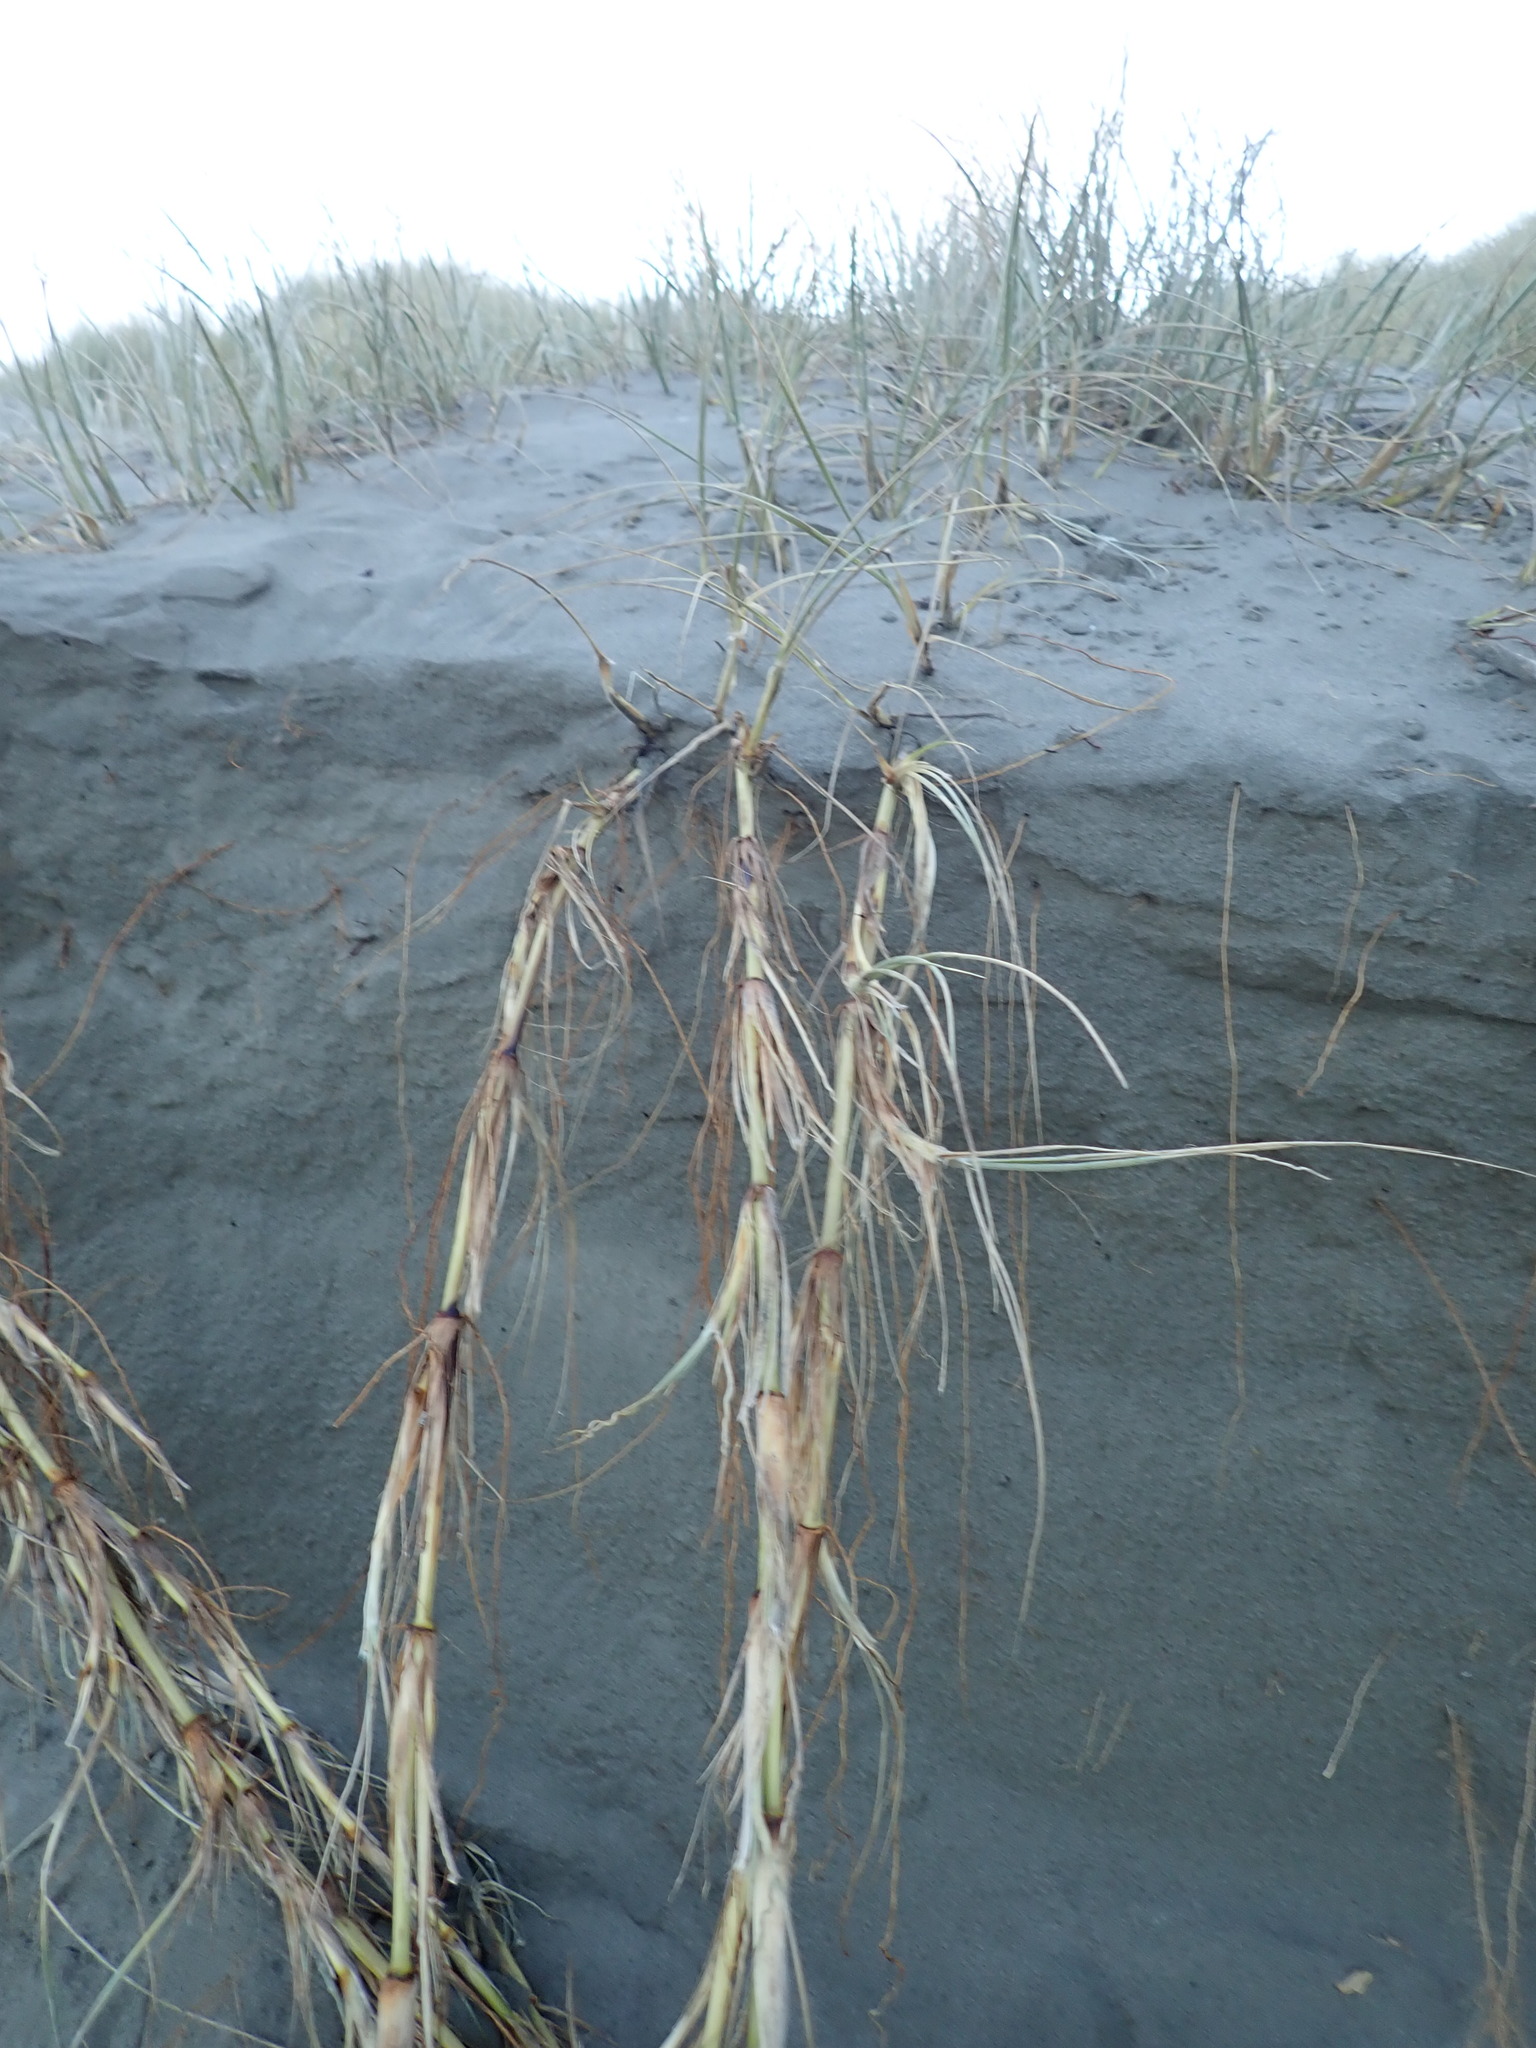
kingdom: Plantae
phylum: Tracheophyta
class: Liliopsida
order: Poales
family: Poaceae
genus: Spinifex
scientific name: Spinifex sericeus
